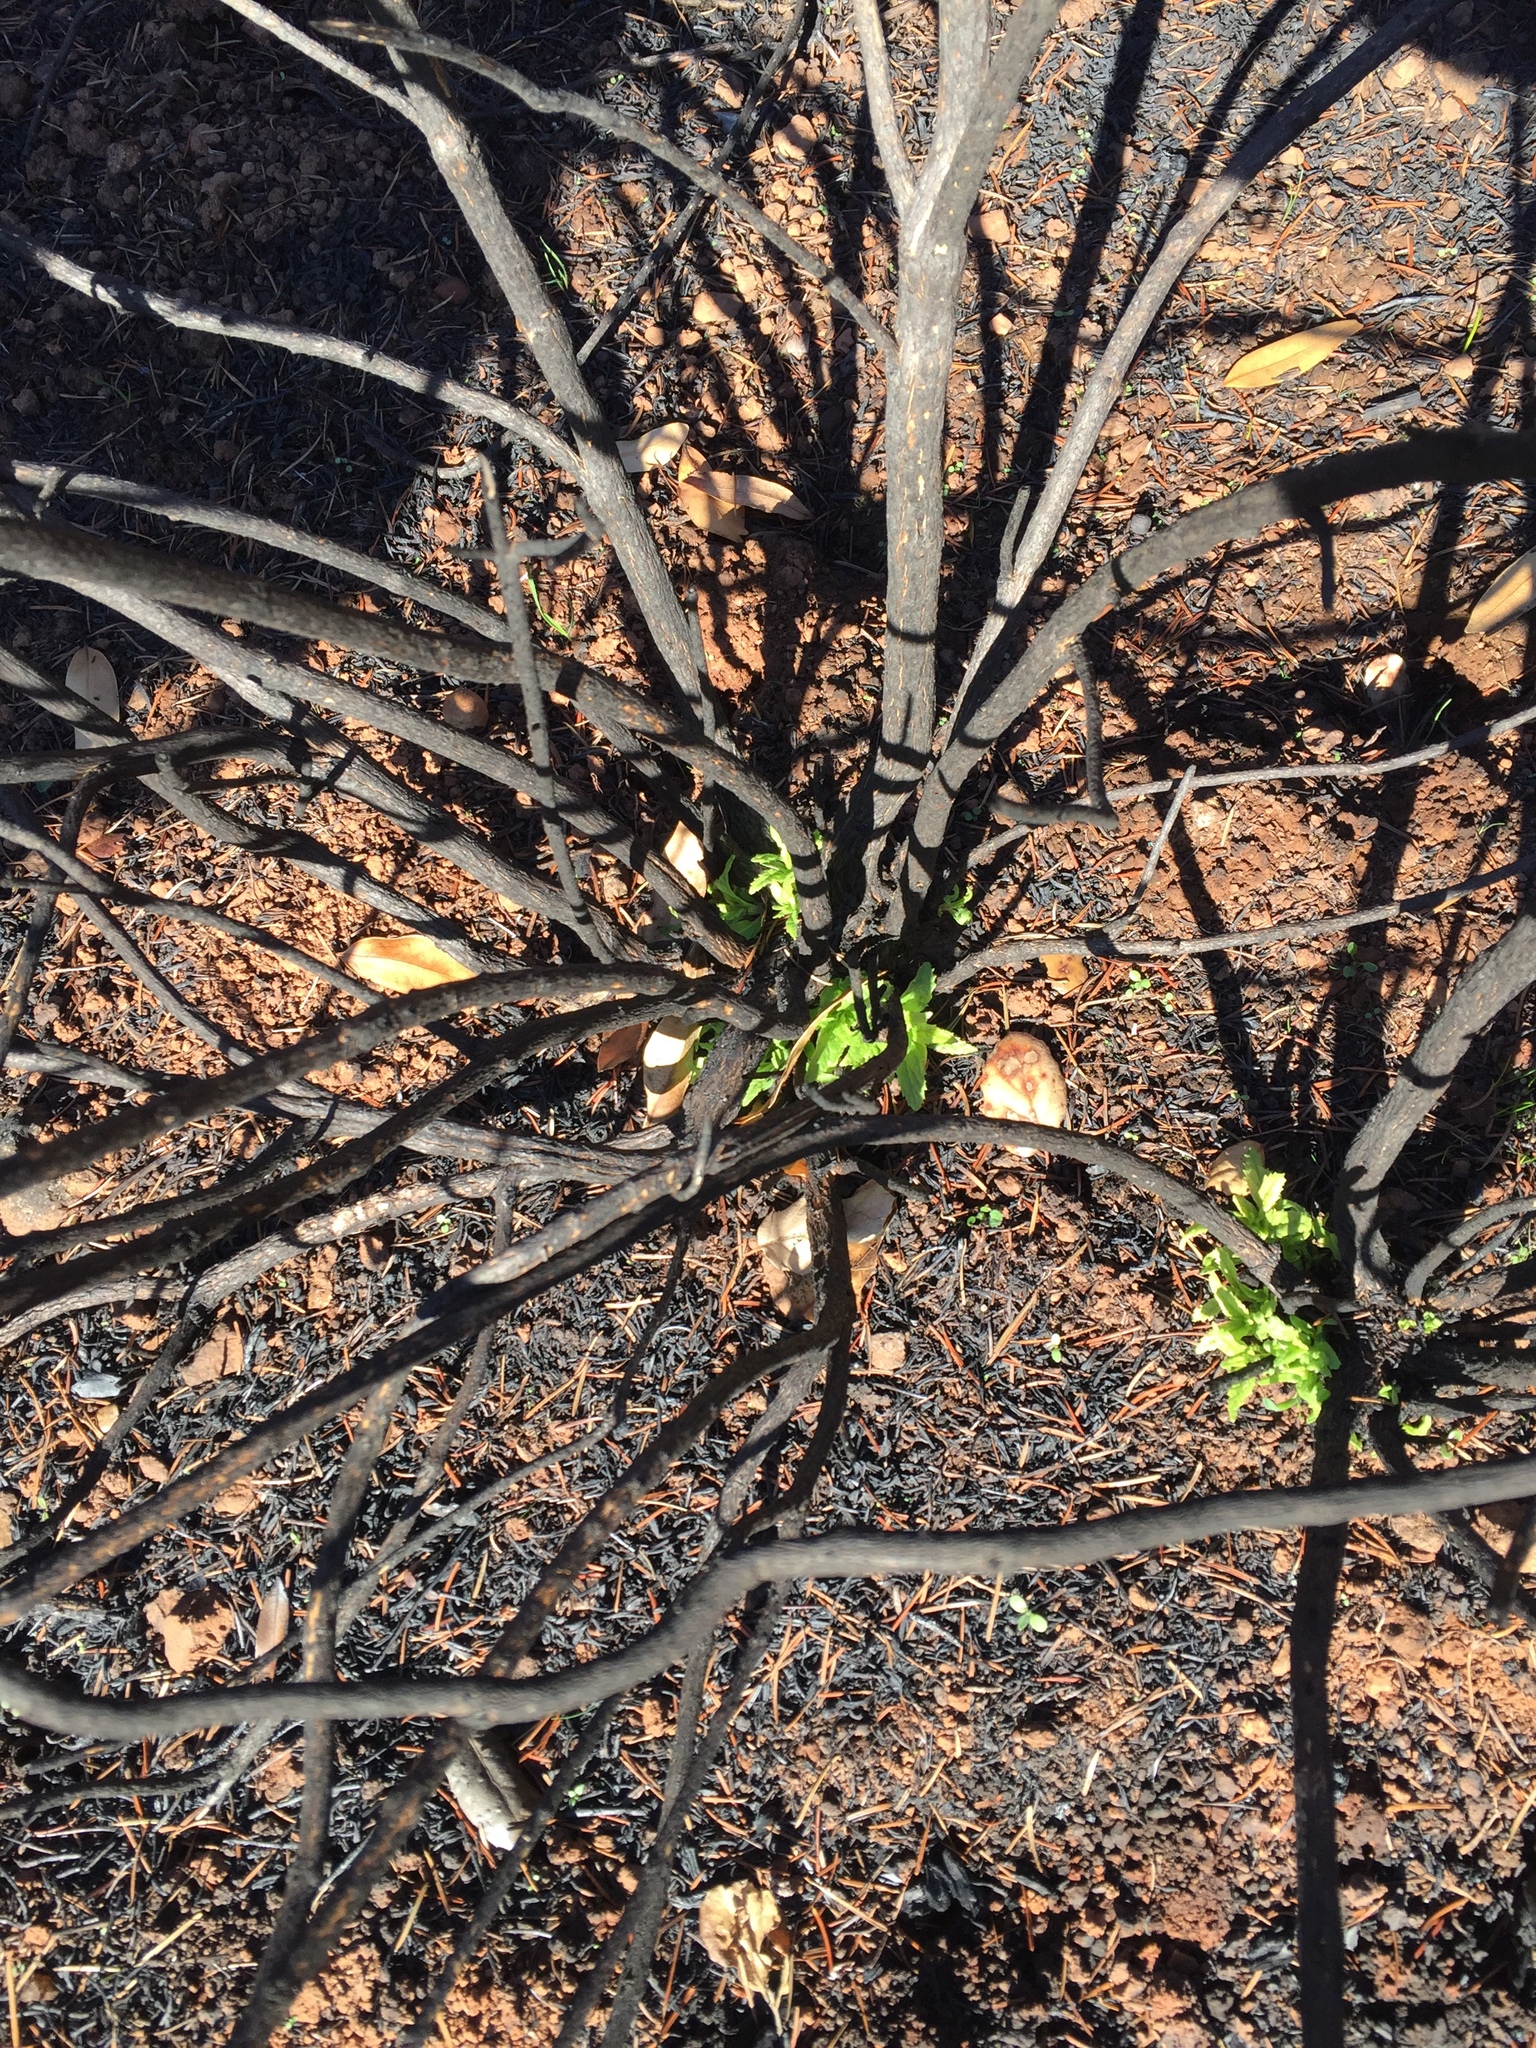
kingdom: Plantae
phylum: Tracheophyta
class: Magnoliopsida
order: Lamiales
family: Phrymaceae
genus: Diplacus
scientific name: Diplacus aurantiacus
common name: Bush monkey-flower
